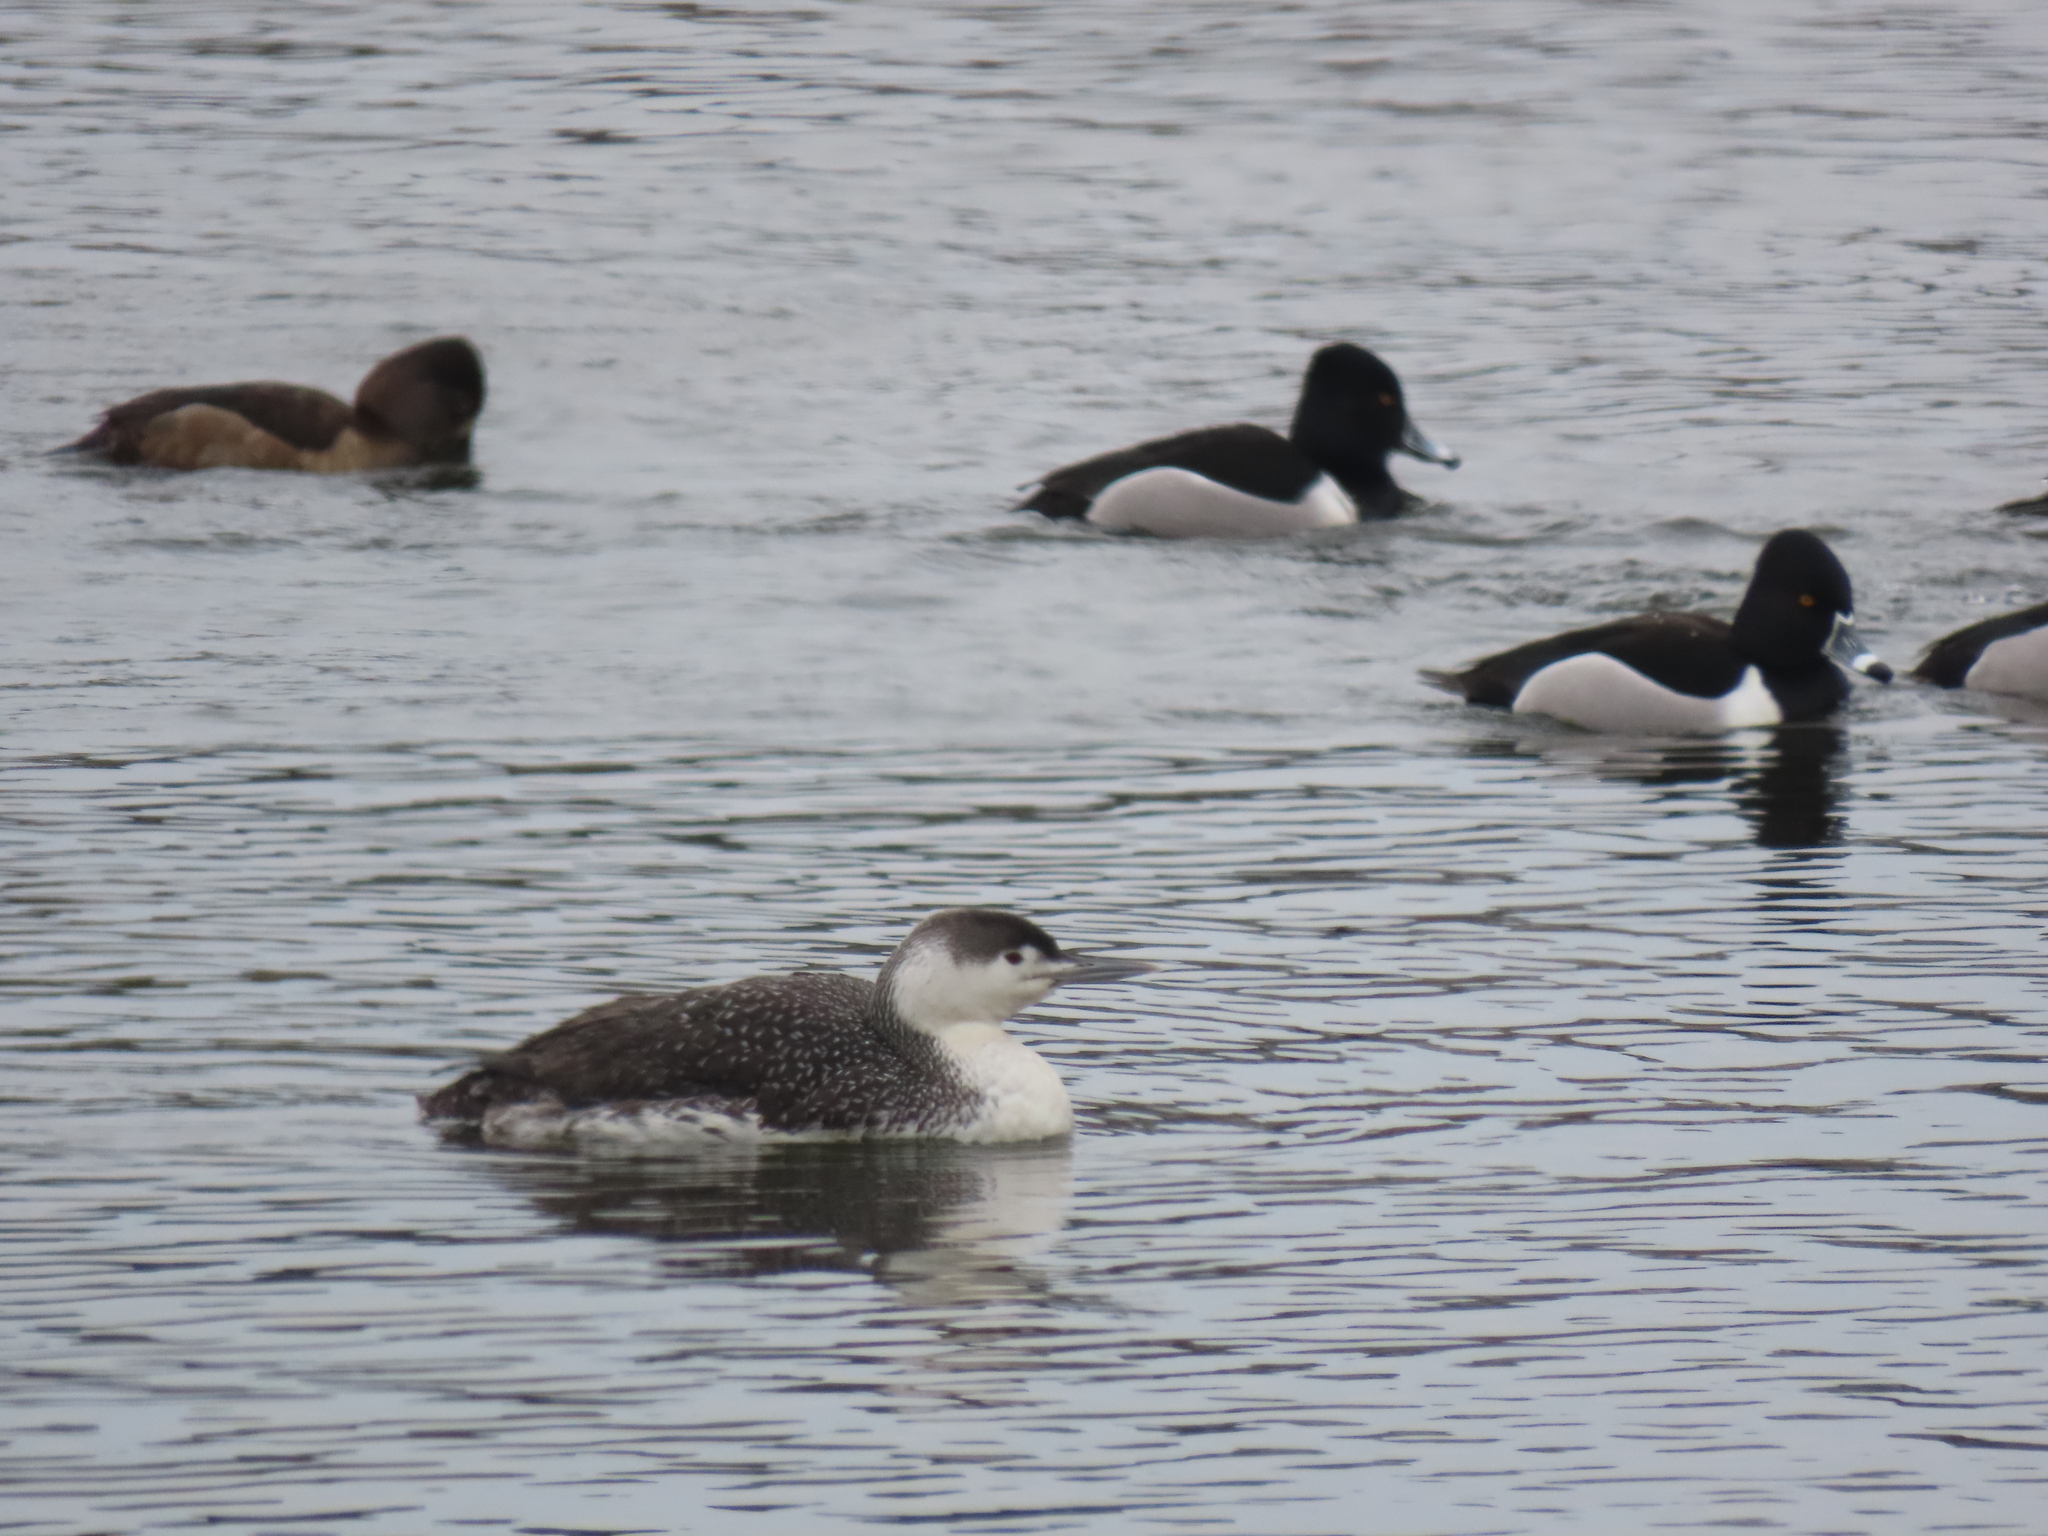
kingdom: Animalia
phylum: Chordata
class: Aves
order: Anseriformes
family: Anatidae
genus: Aythya
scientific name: Aythya collaris
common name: Ring-necked duck
